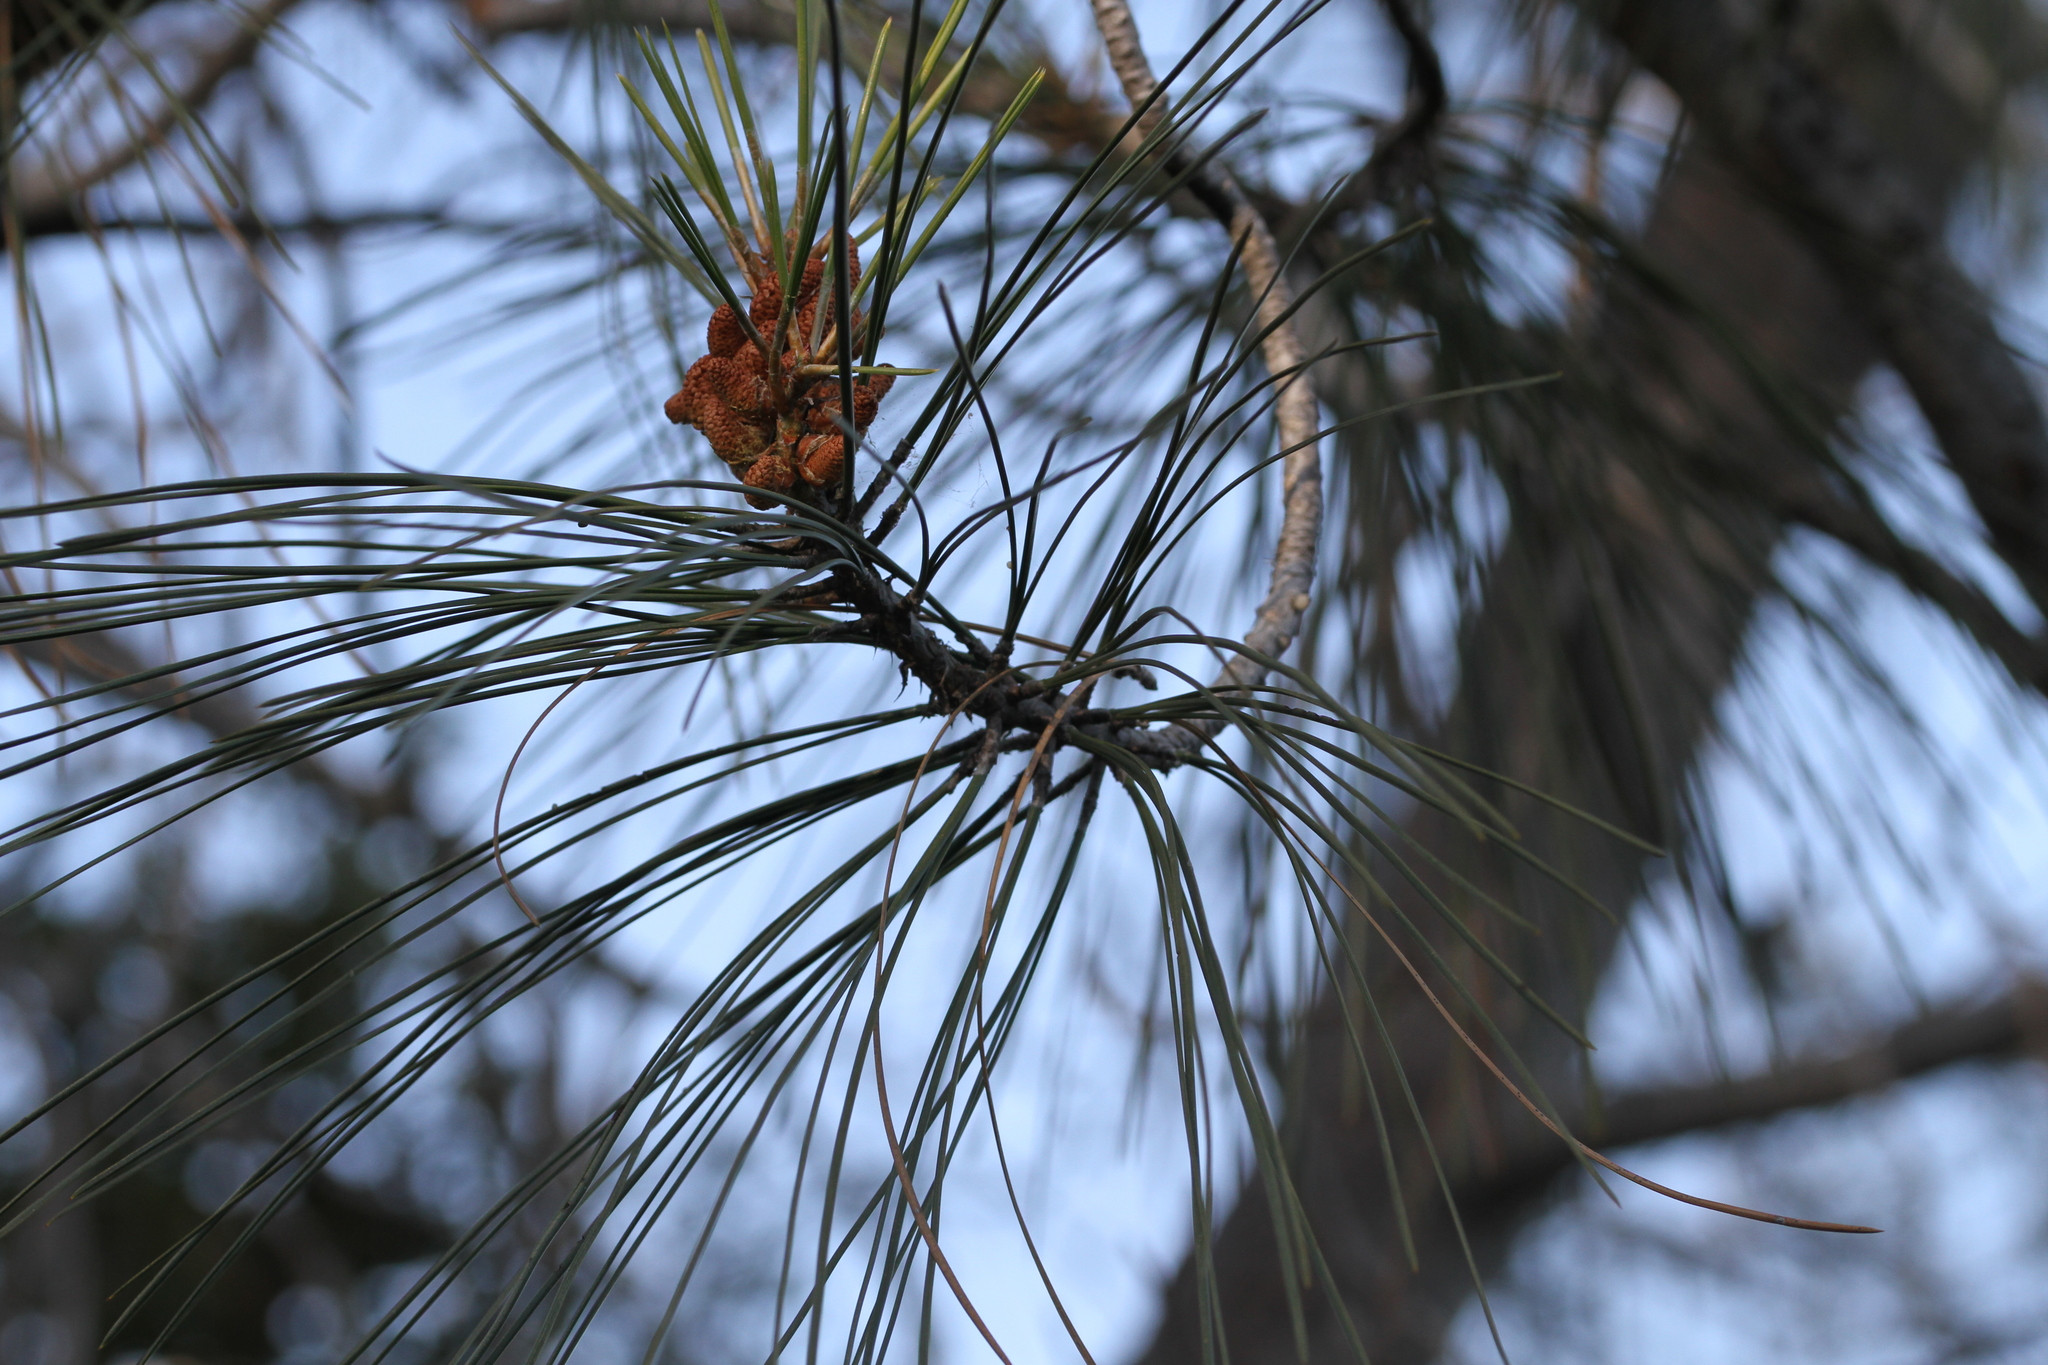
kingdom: Plantae
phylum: Tracheophyta
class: Pinopsida
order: Pinales
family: Pinaceae
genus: Pinus
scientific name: Pinus sabiniana
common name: Bull pine
